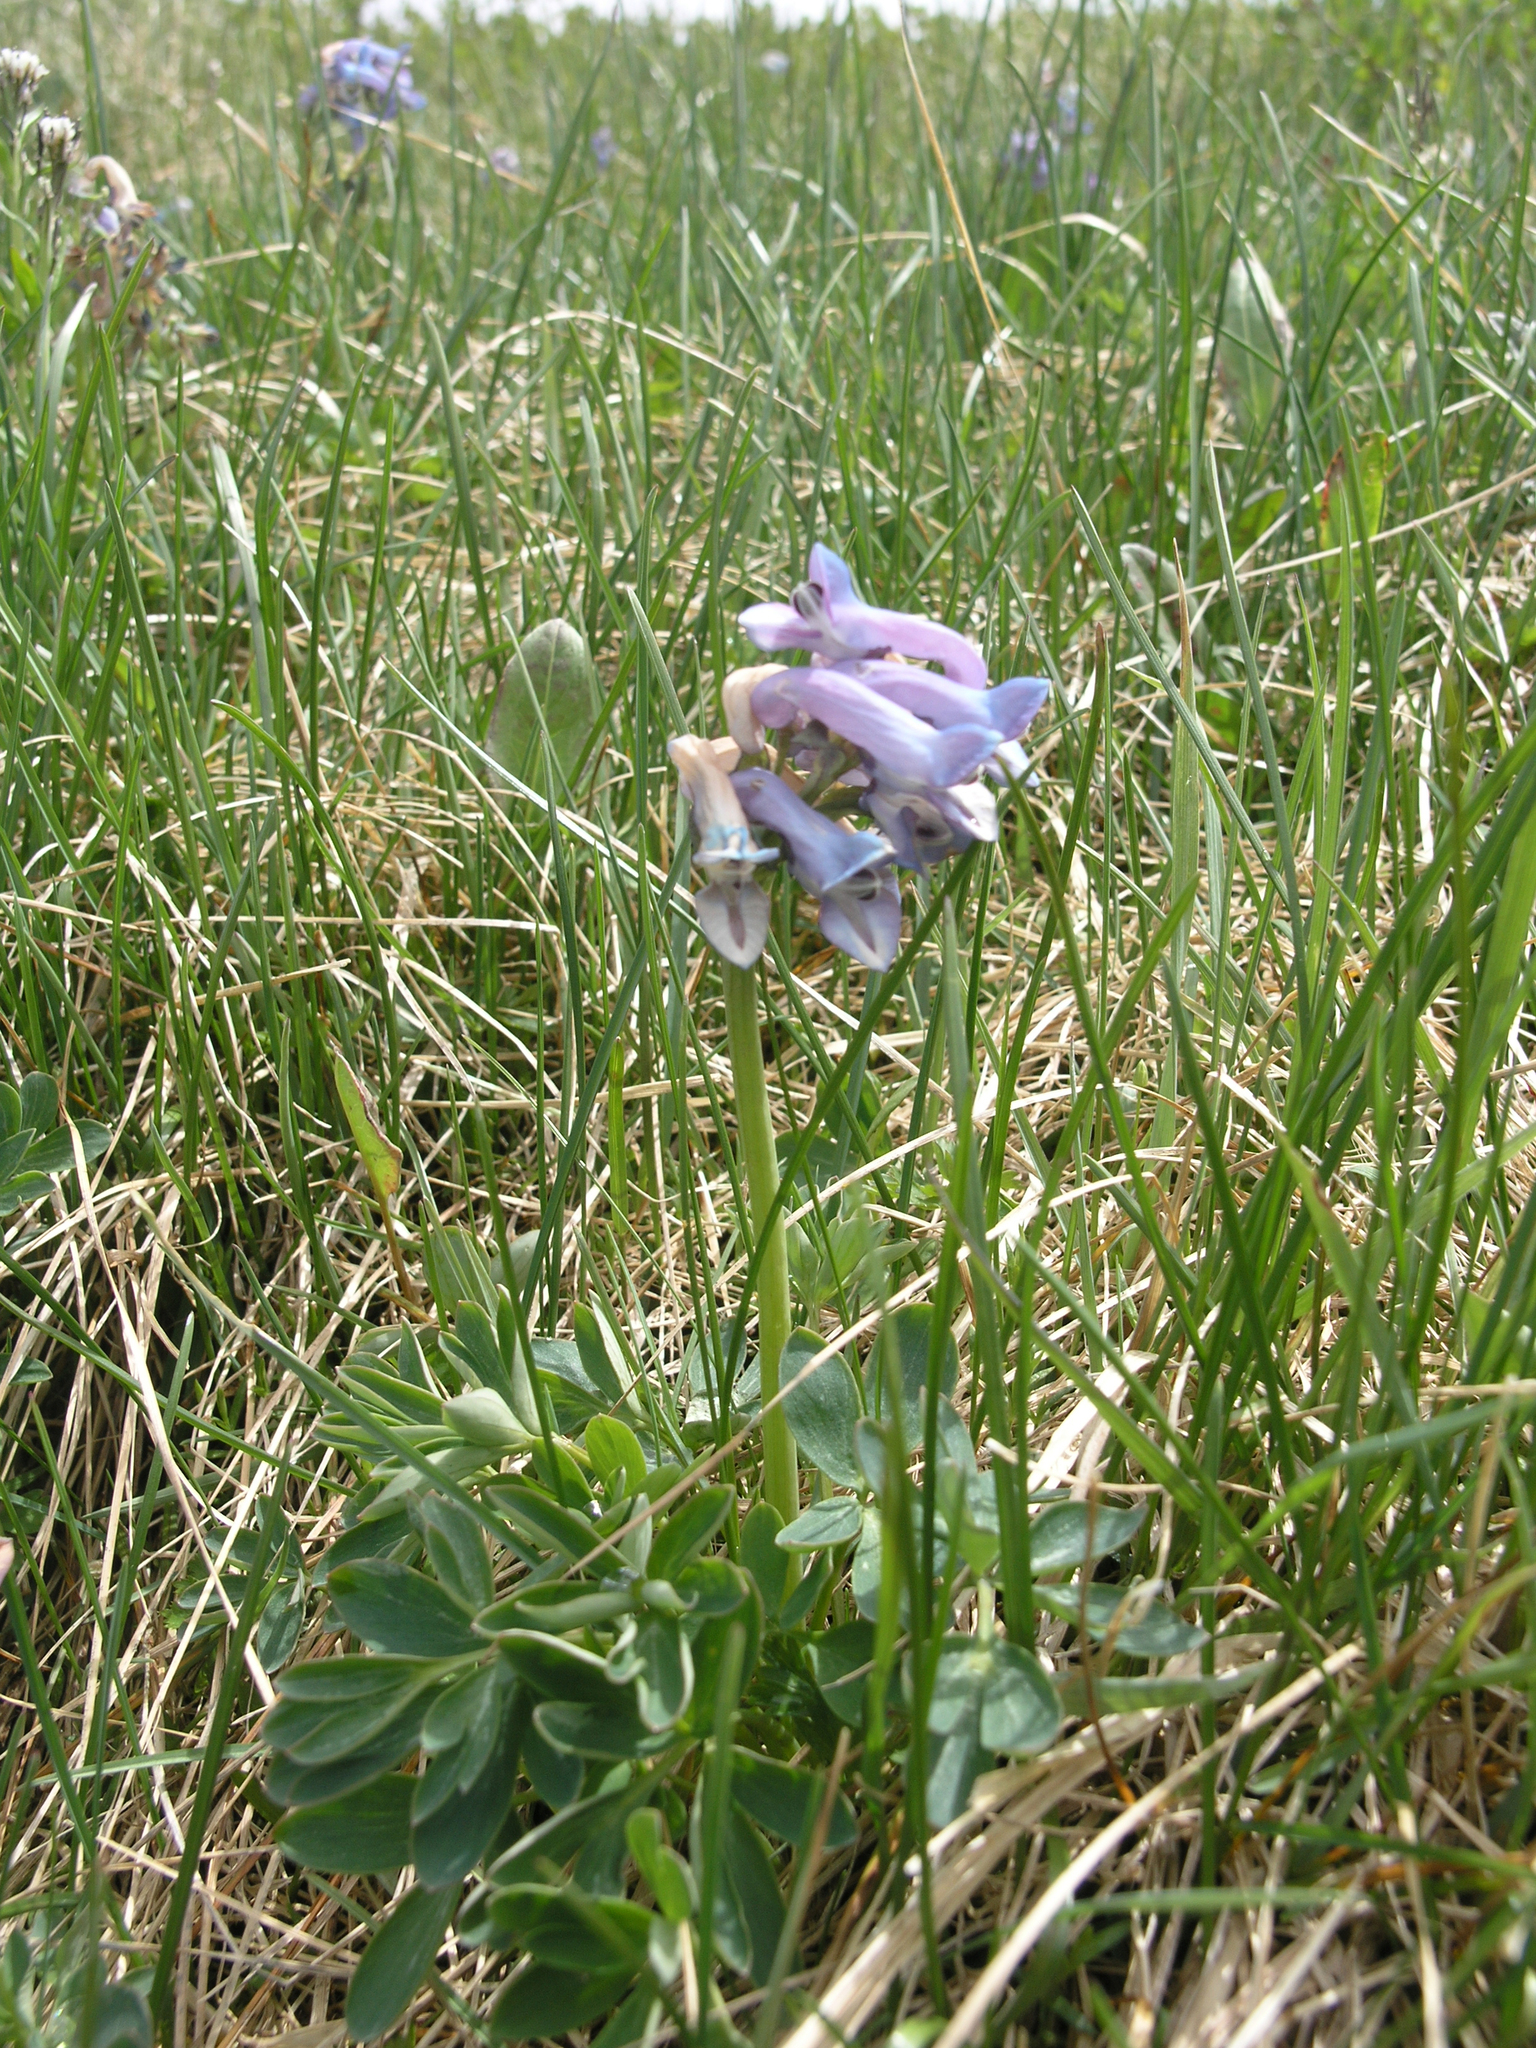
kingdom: Plantae
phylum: Tracheophyta
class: Magnoliopsida
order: Ranunculales
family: Papaveraceae
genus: Corydalis
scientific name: Corydalis pauciflora
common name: Blue corydalis
